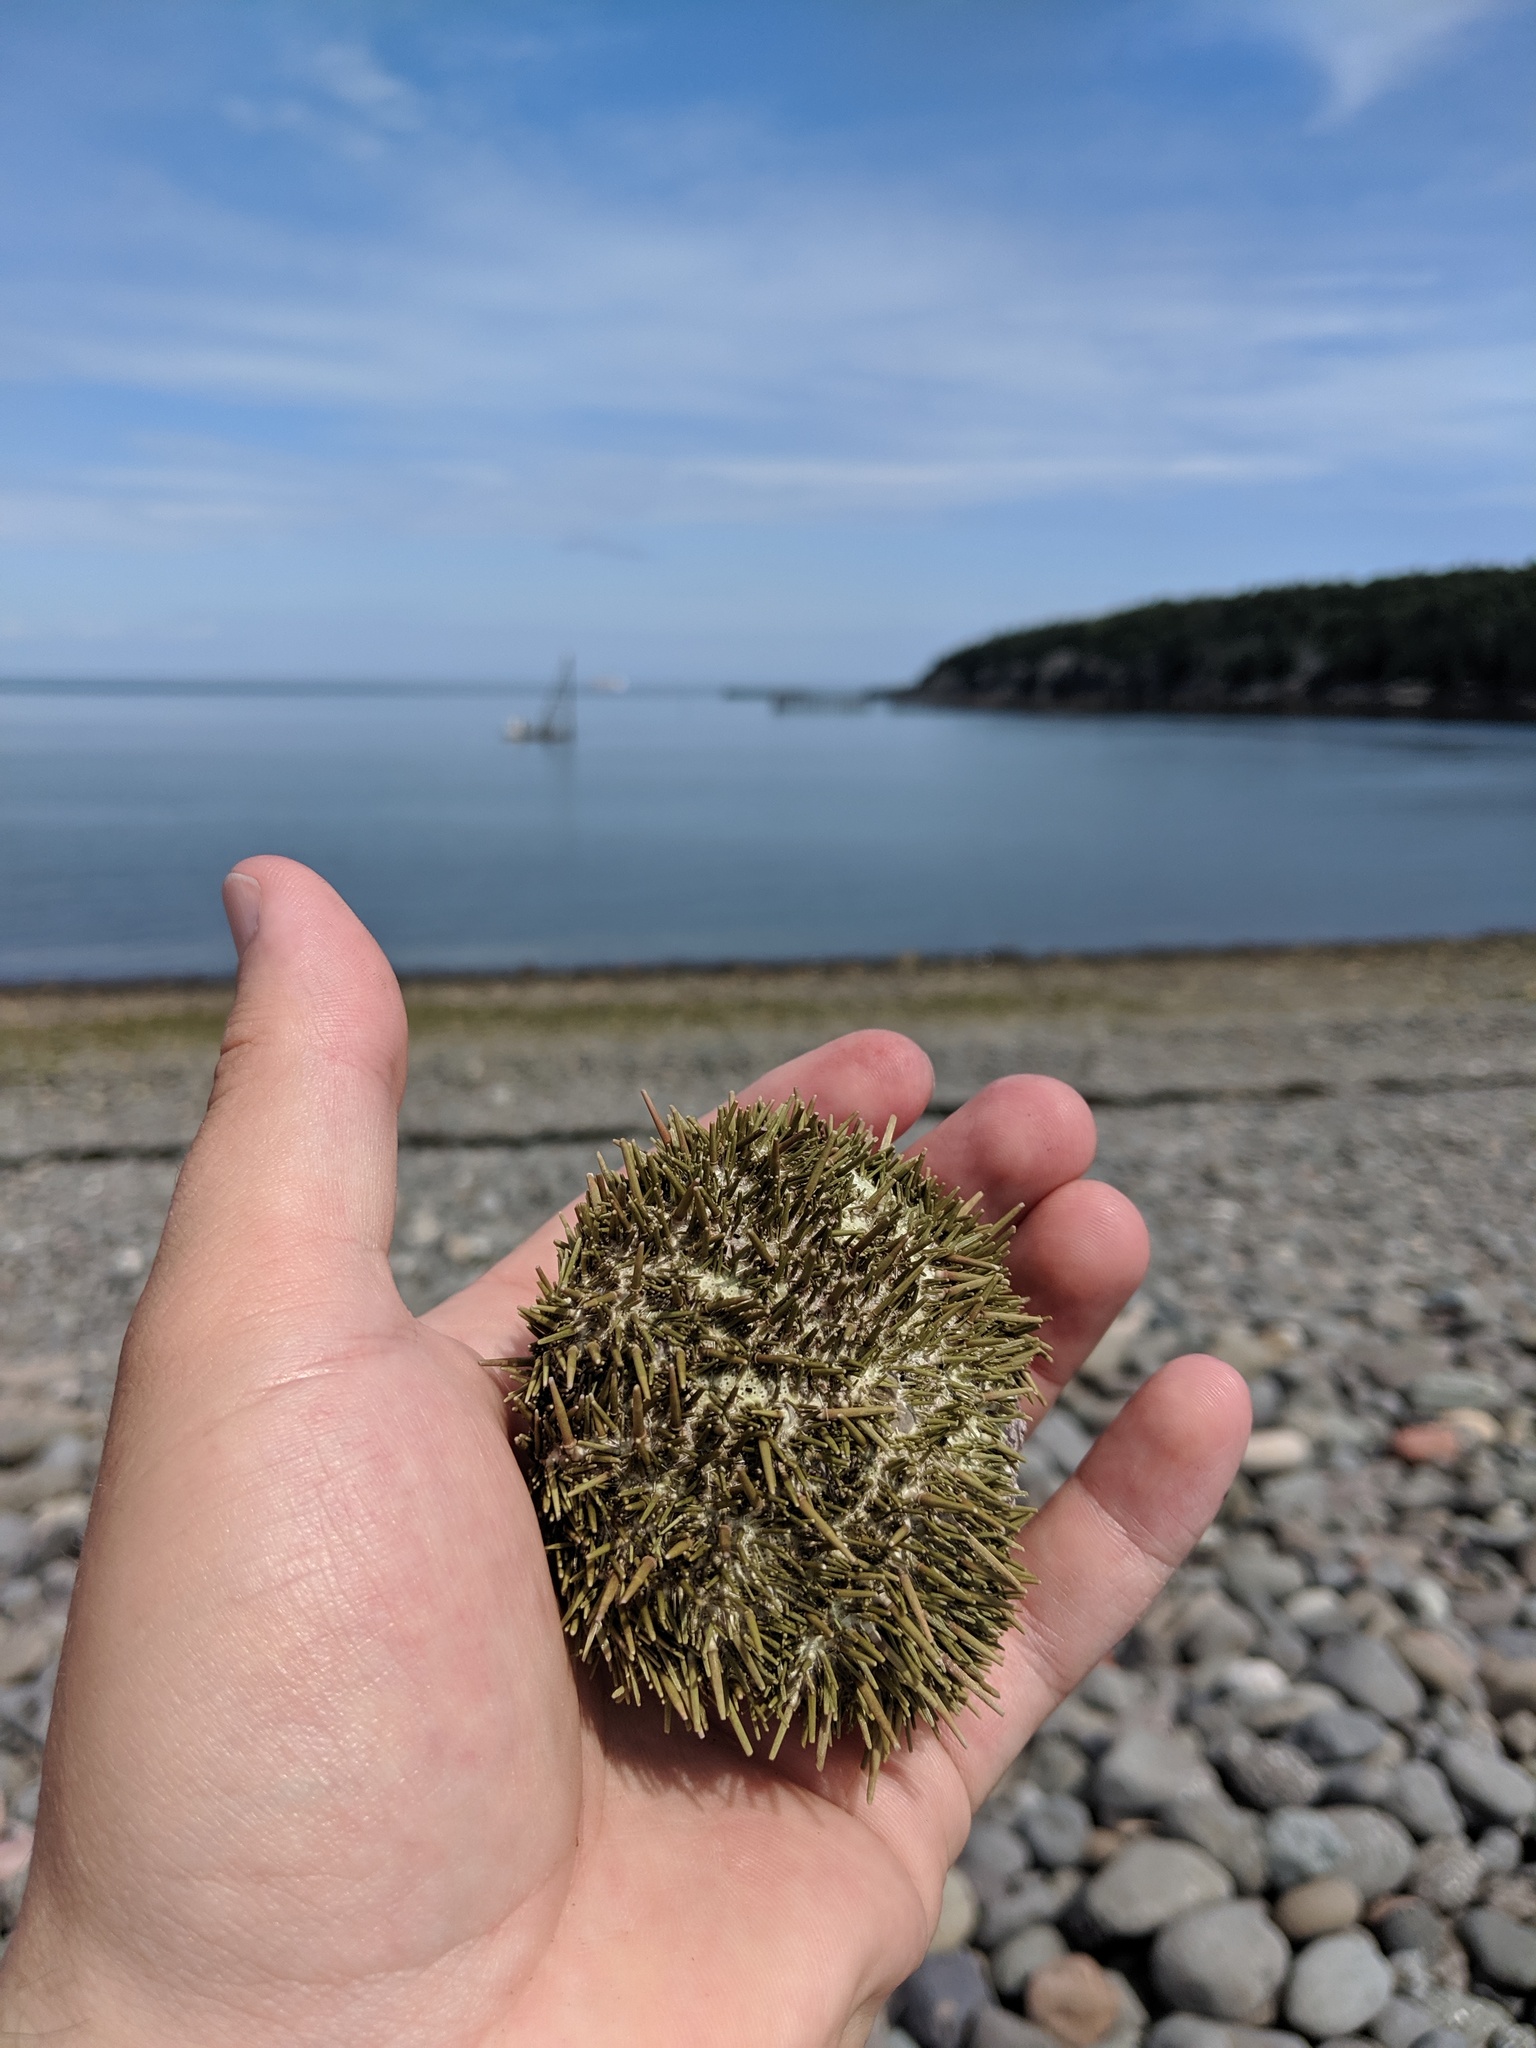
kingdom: Animalia
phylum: Echinodermata
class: Echinoidea
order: Camarodonta
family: Strongylocentrotidae
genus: Strongylocentrotus
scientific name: Strongylocentrotus droebachiensis
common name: Northern sea urchin
